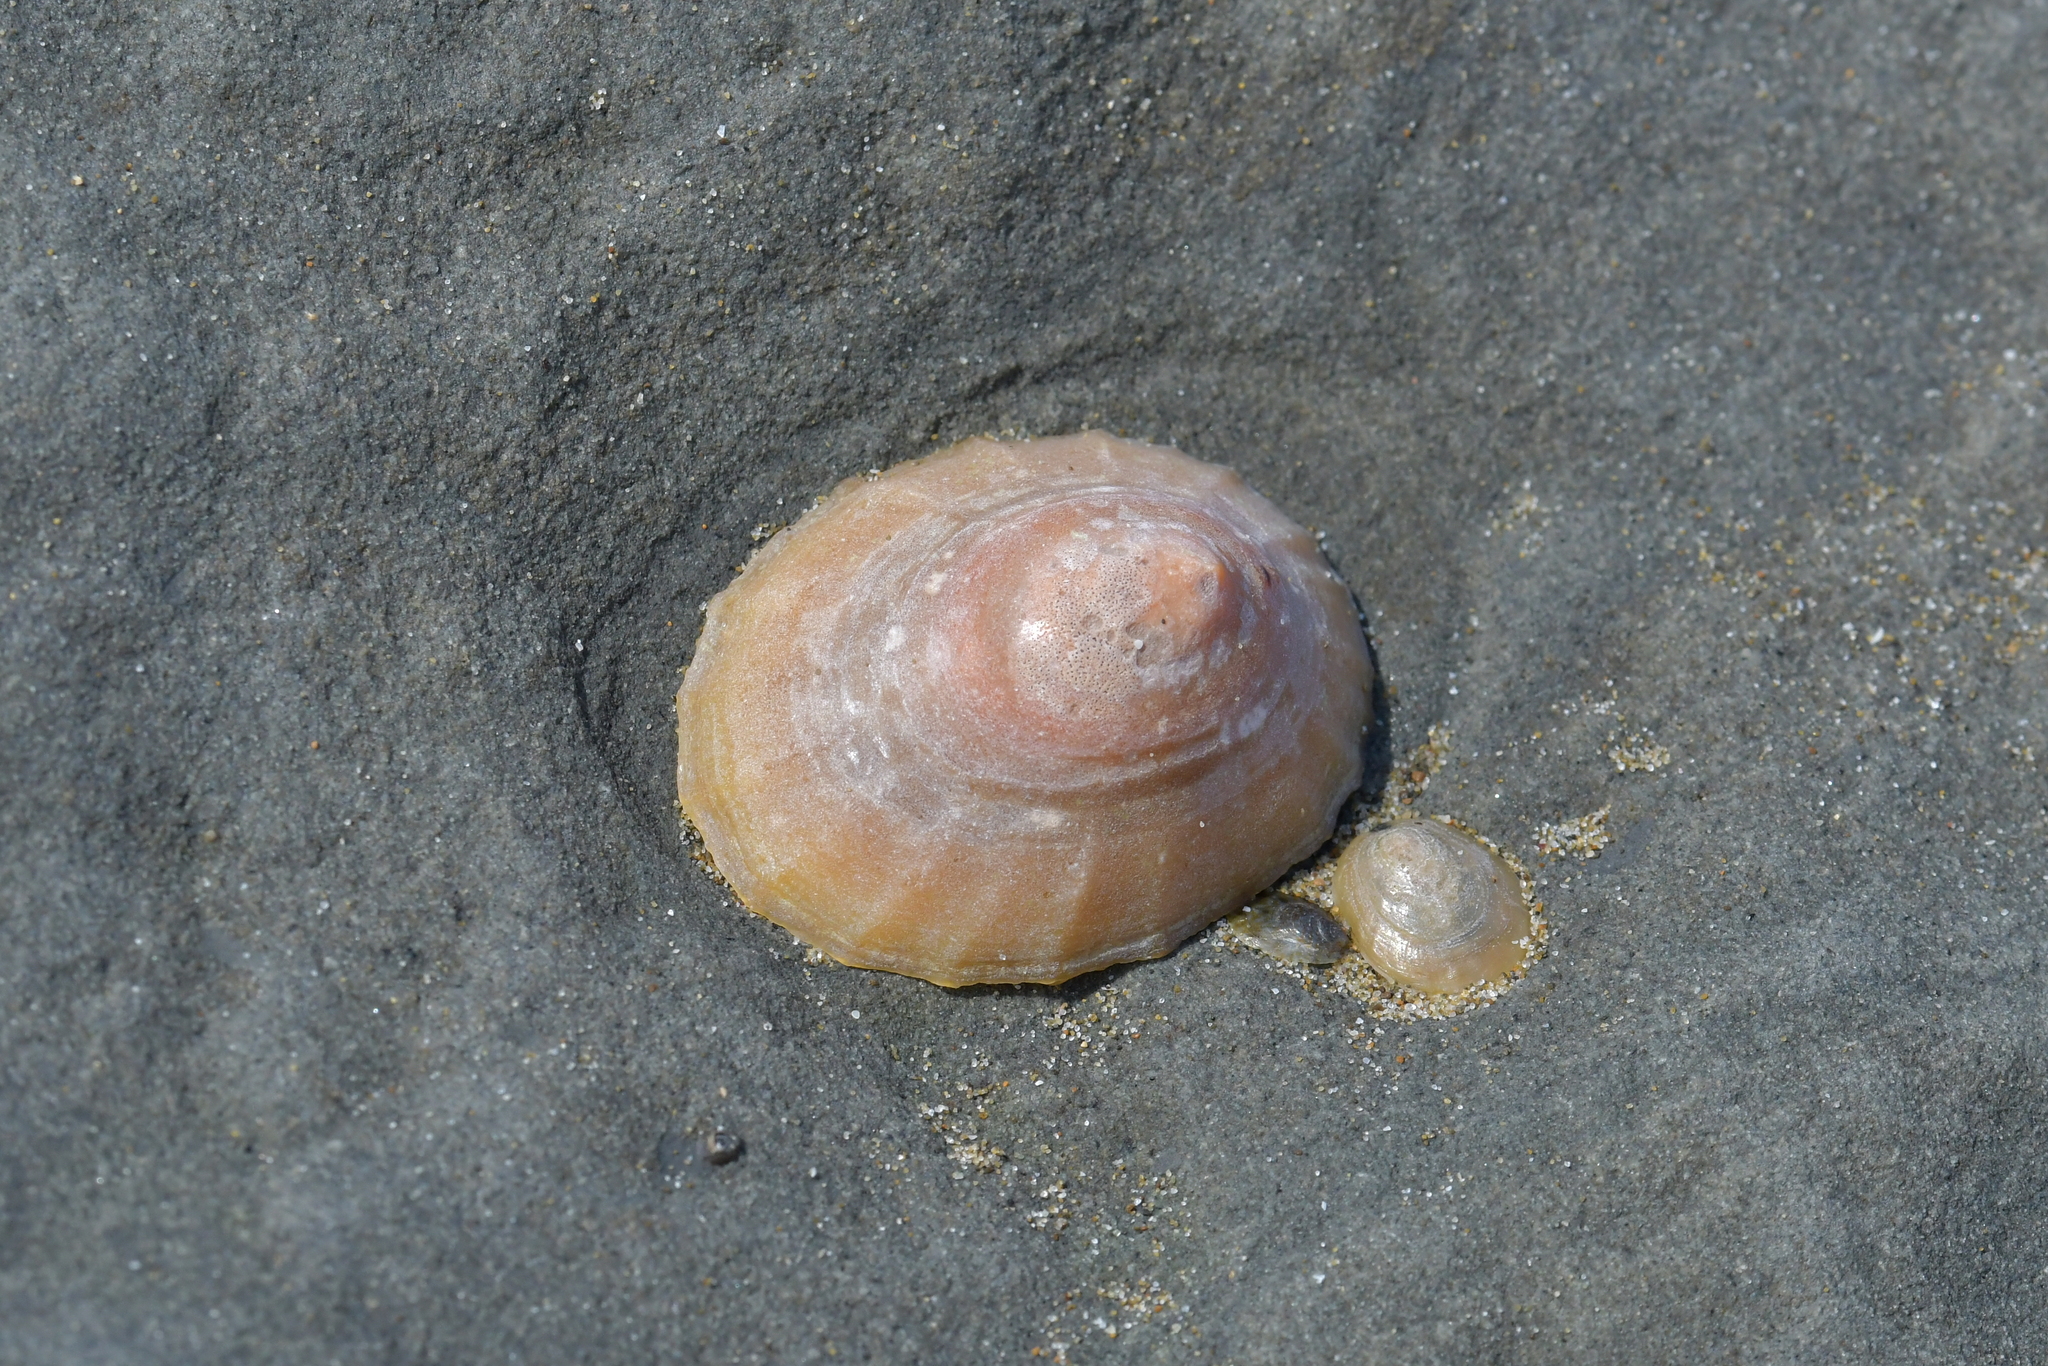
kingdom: Animalia
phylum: Mollusca
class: Gastropoda
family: Nacellidae
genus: Cellana
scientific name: Cellana flava
